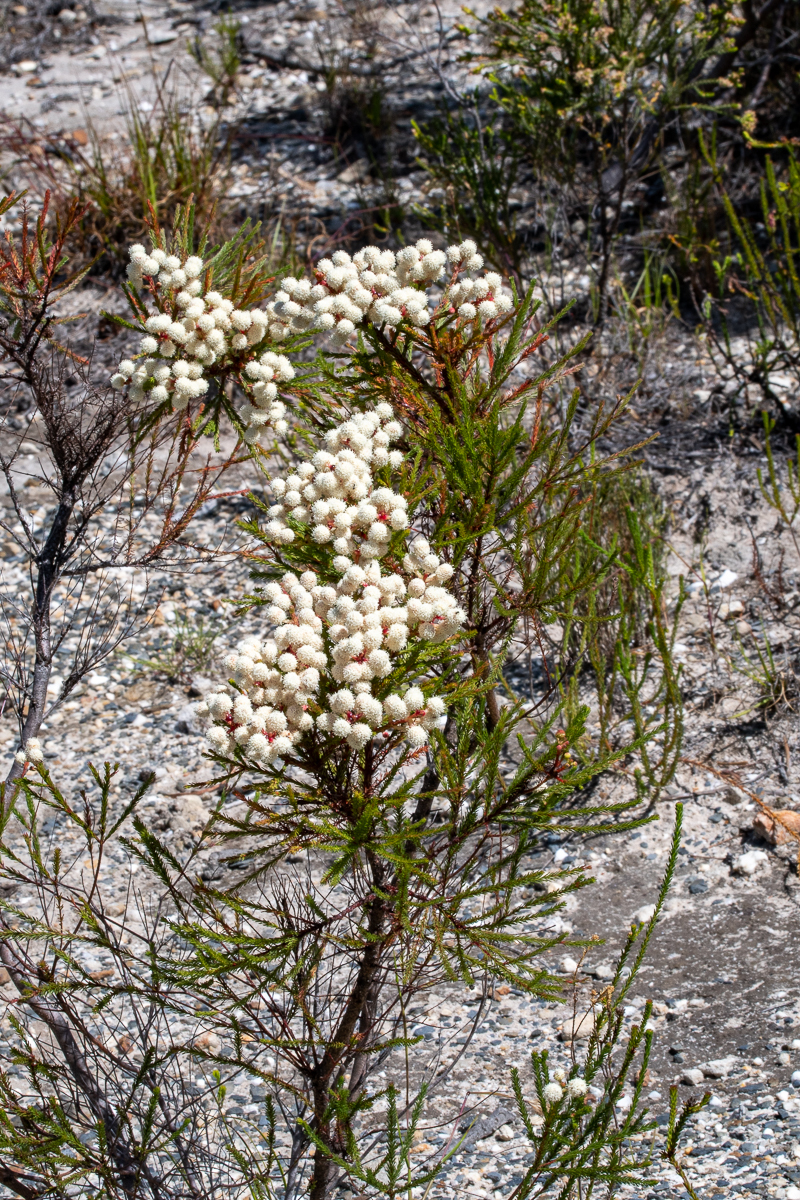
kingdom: Plantae
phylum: Tracheophyta
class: Magnoliopsida
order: Bruniales
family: Bruniaceae
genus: Berzelia
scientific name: Berzelia alopecurioides
